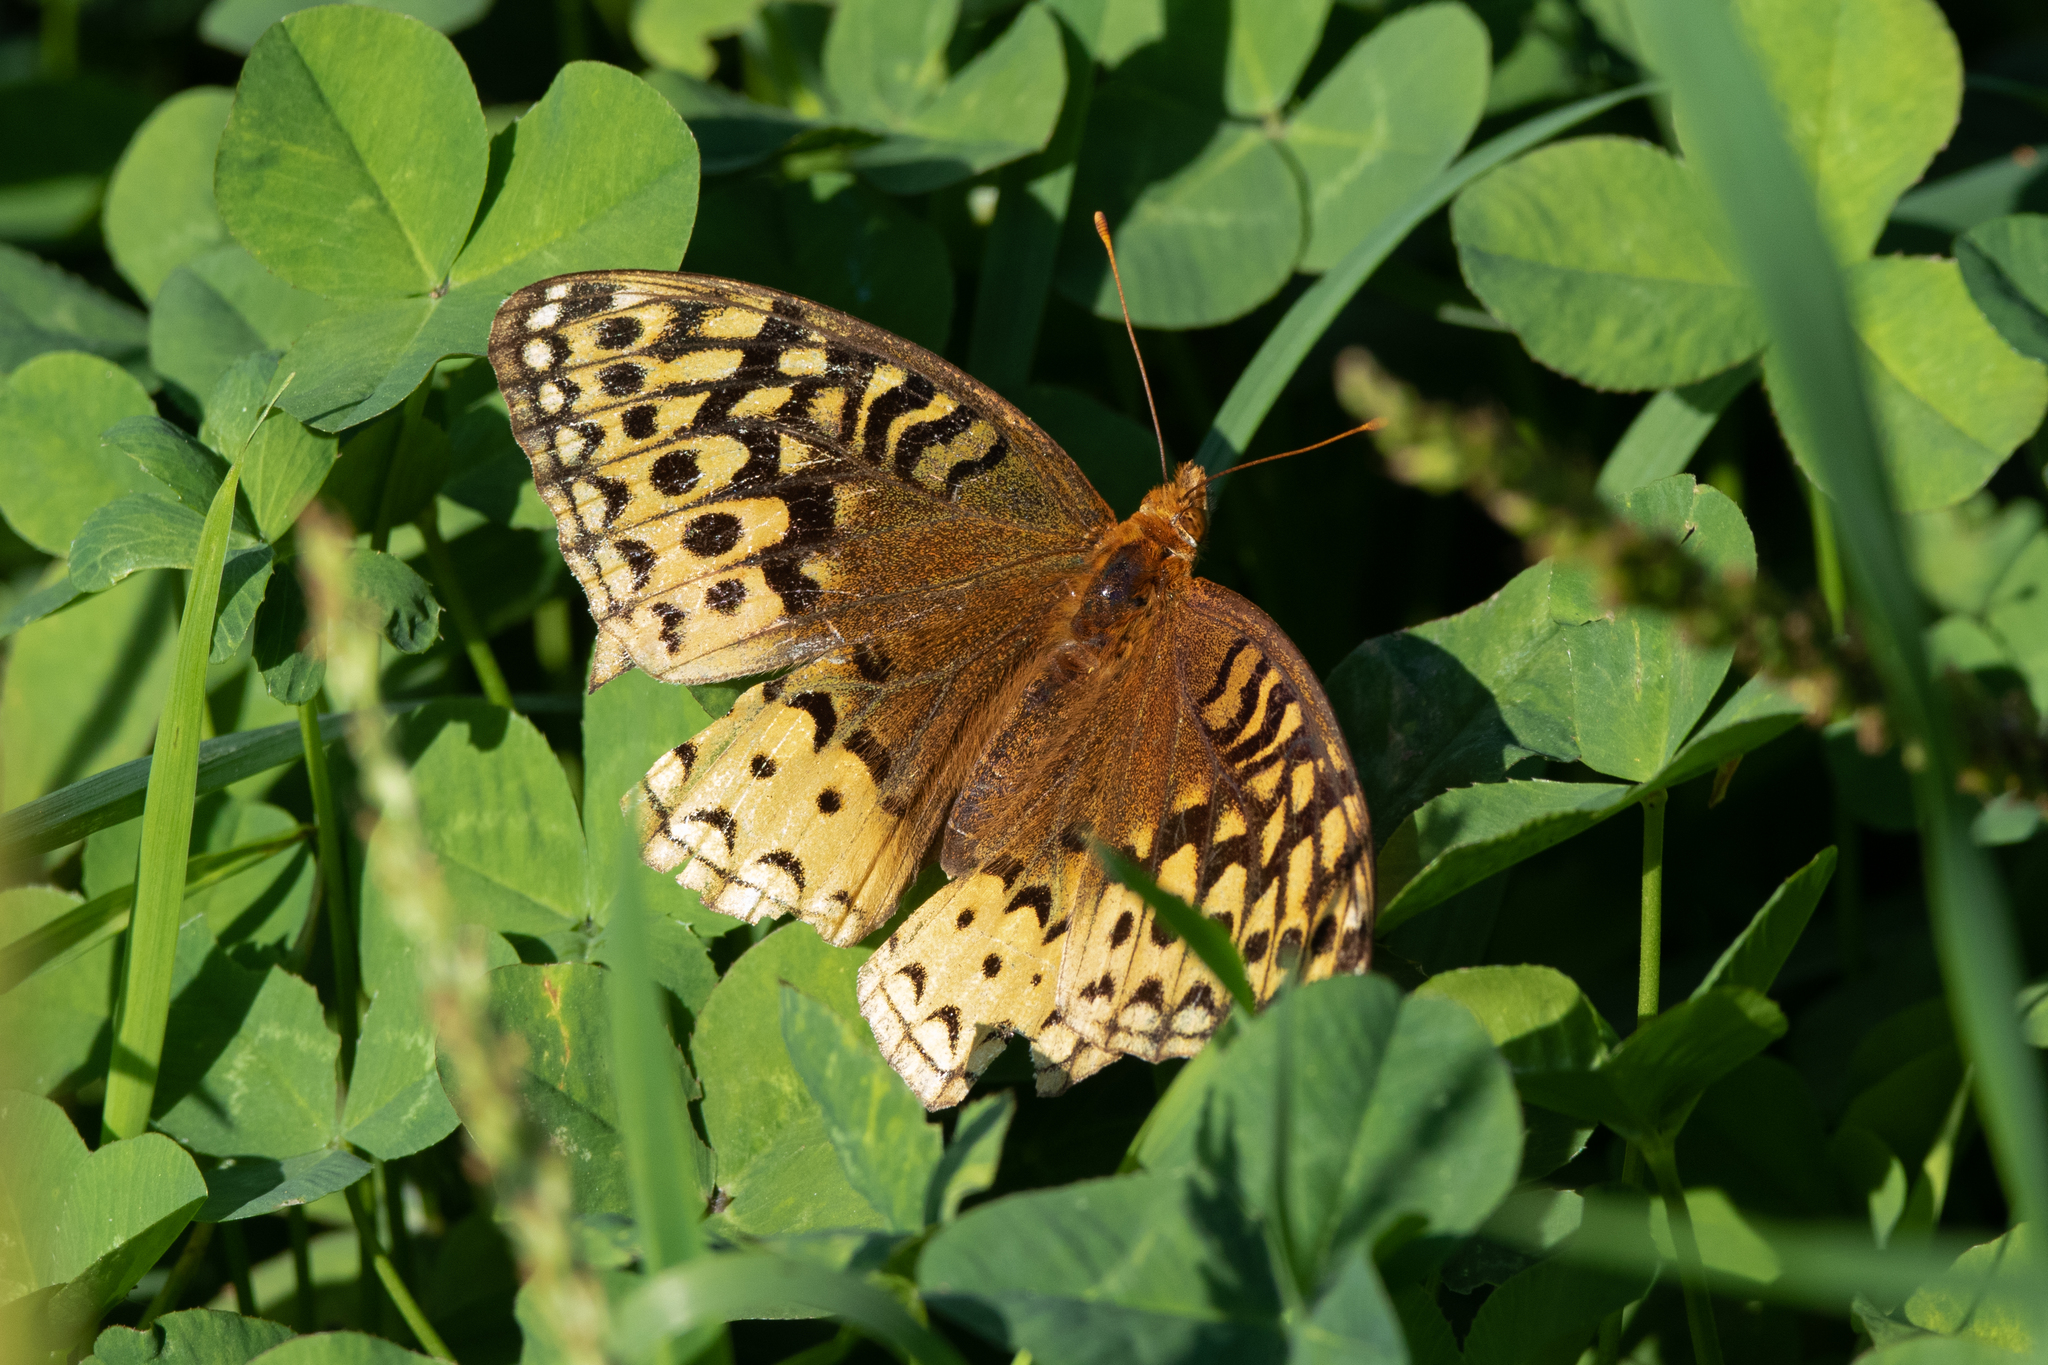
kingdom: Animalia
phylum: Arthropoda
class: Insecta
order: Lepidoptera
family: Nymphalidae
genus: Speyeria
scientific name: Speyeria cybele
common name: Great spangled fritillary
